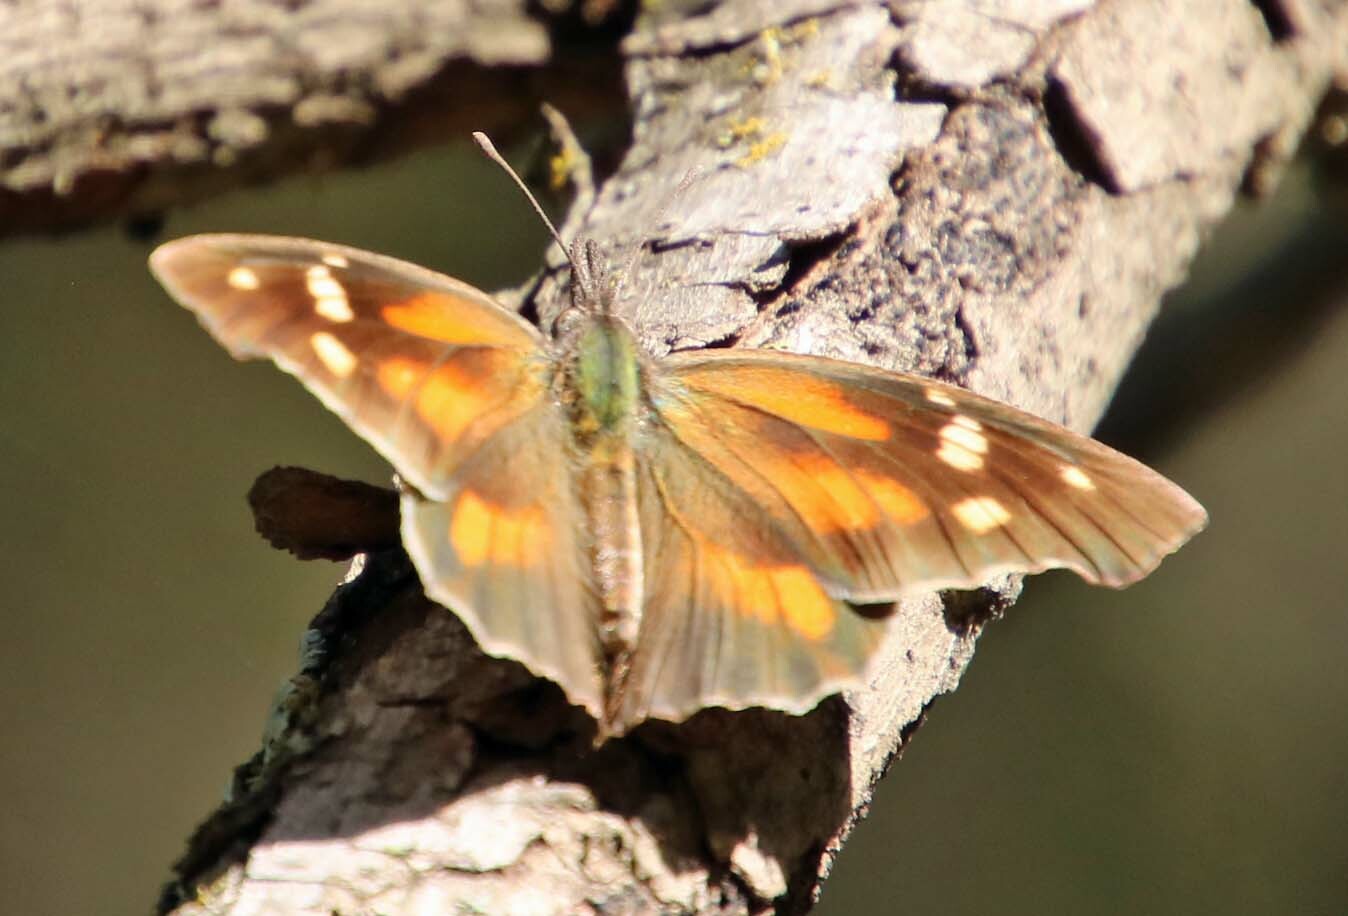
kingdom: Animalia
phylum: Arthropoda
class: Insecta
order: Lepidoptera
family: Nymphalidae
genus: Libytheana
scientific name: Libytheana carinenta
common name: American snout
